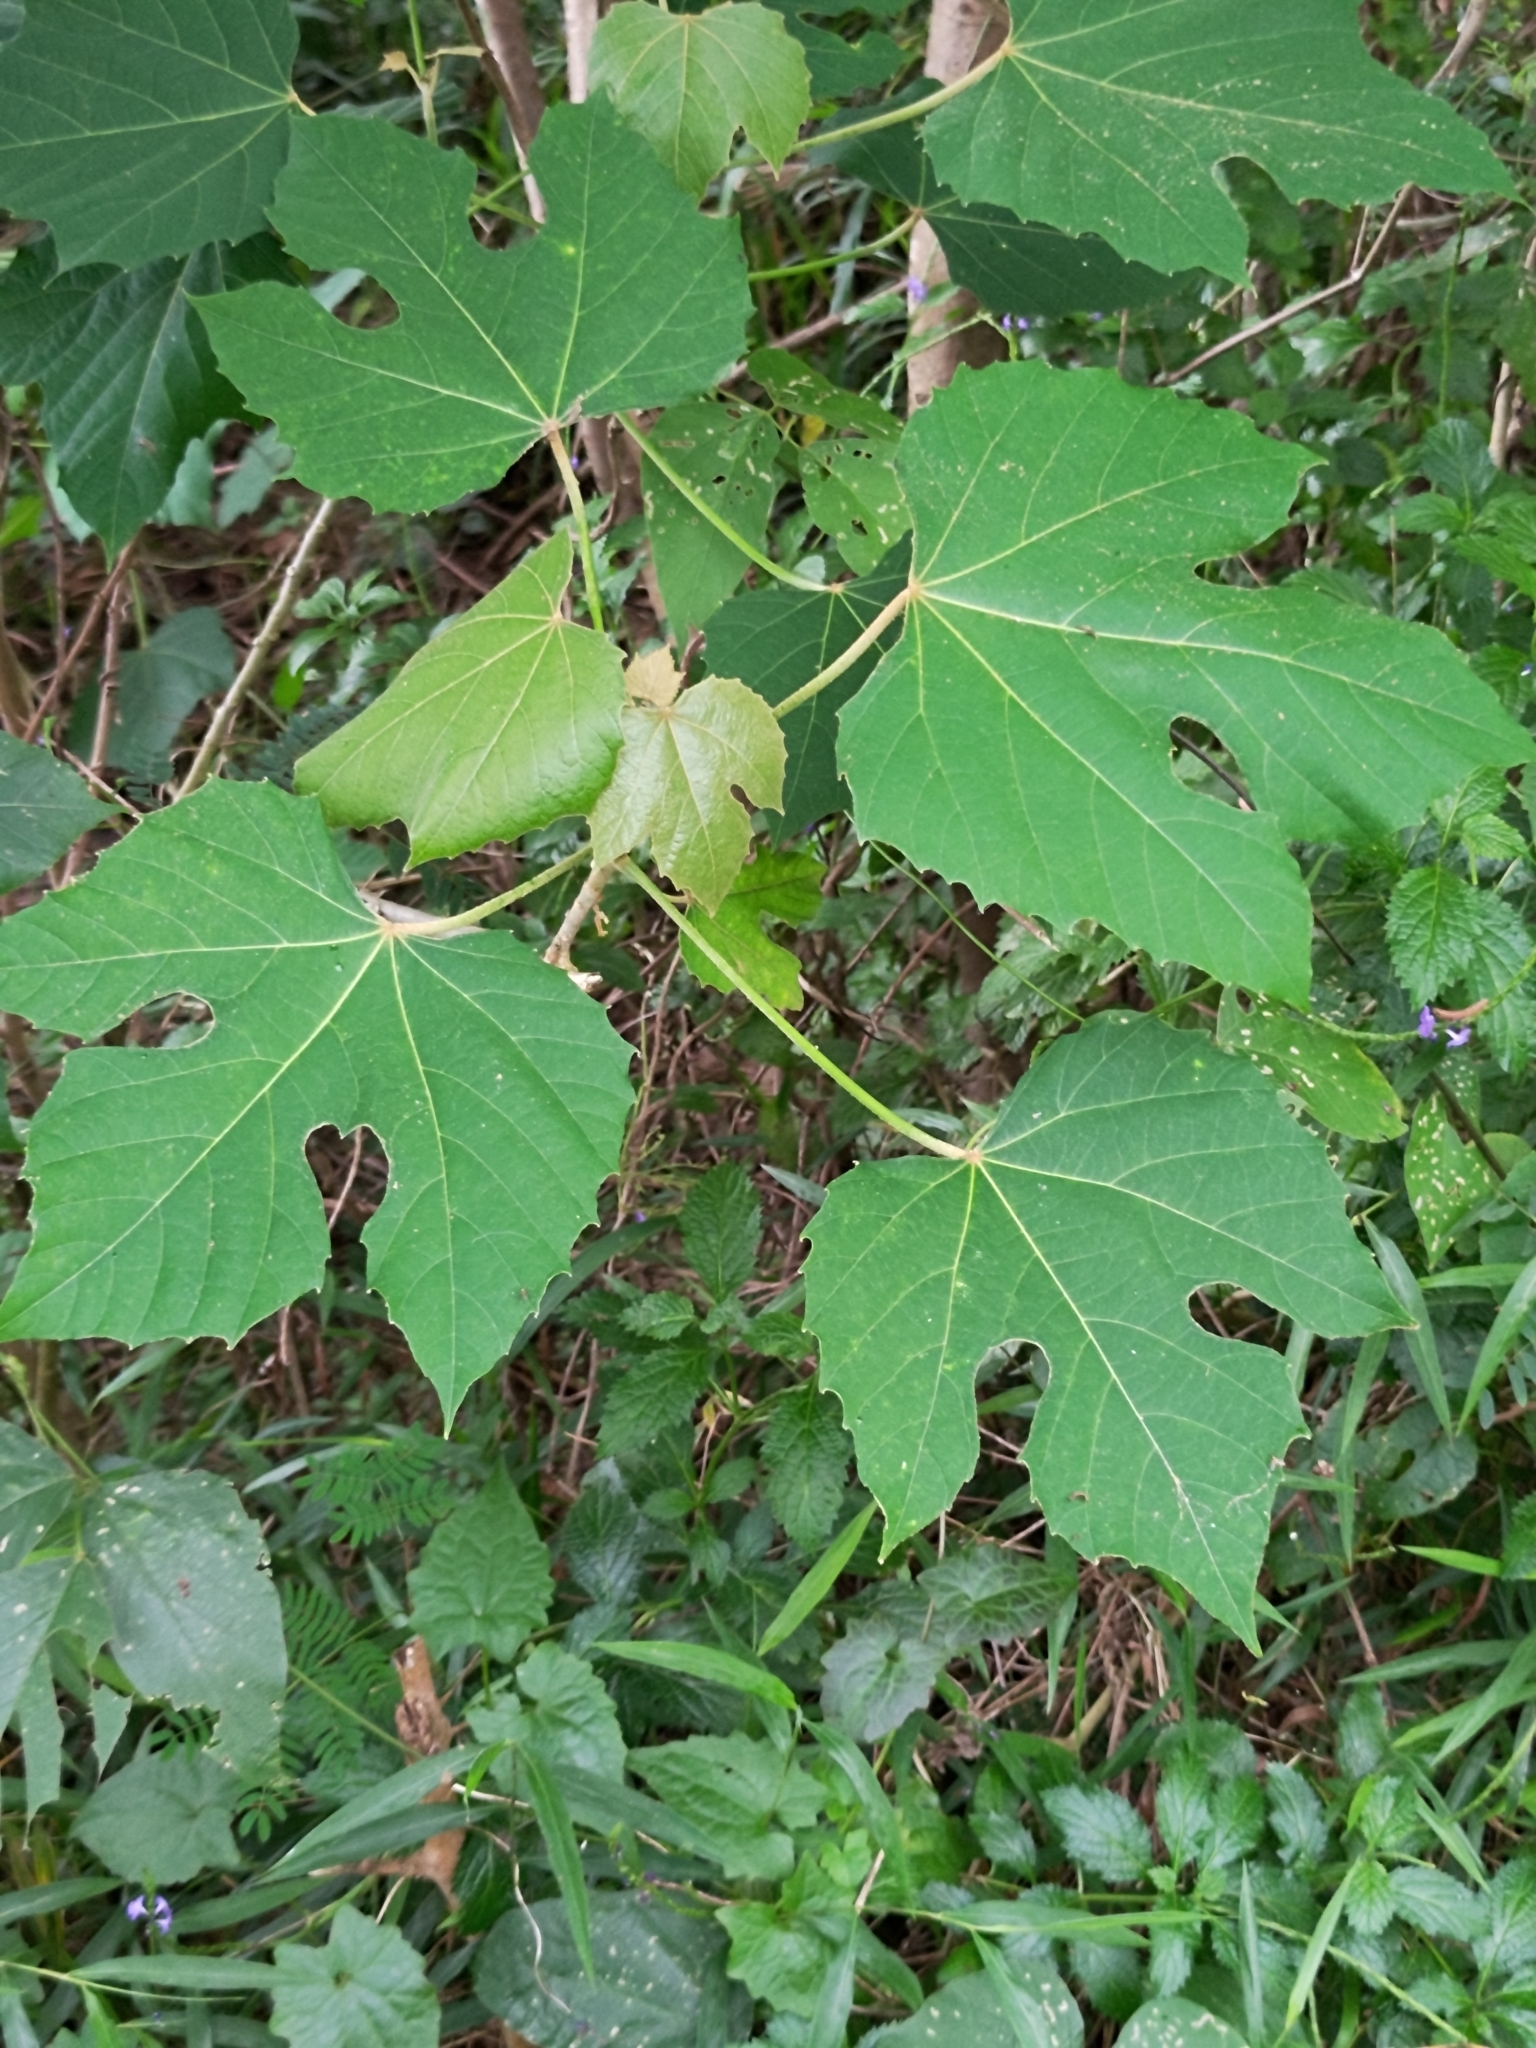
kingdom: Plantae
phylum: Tracheophyta
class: Magnoliopsida
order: Malpighiales
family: Euphorbiaceae
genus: Melanolepis
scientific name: Melanolepis multiglandulosa
